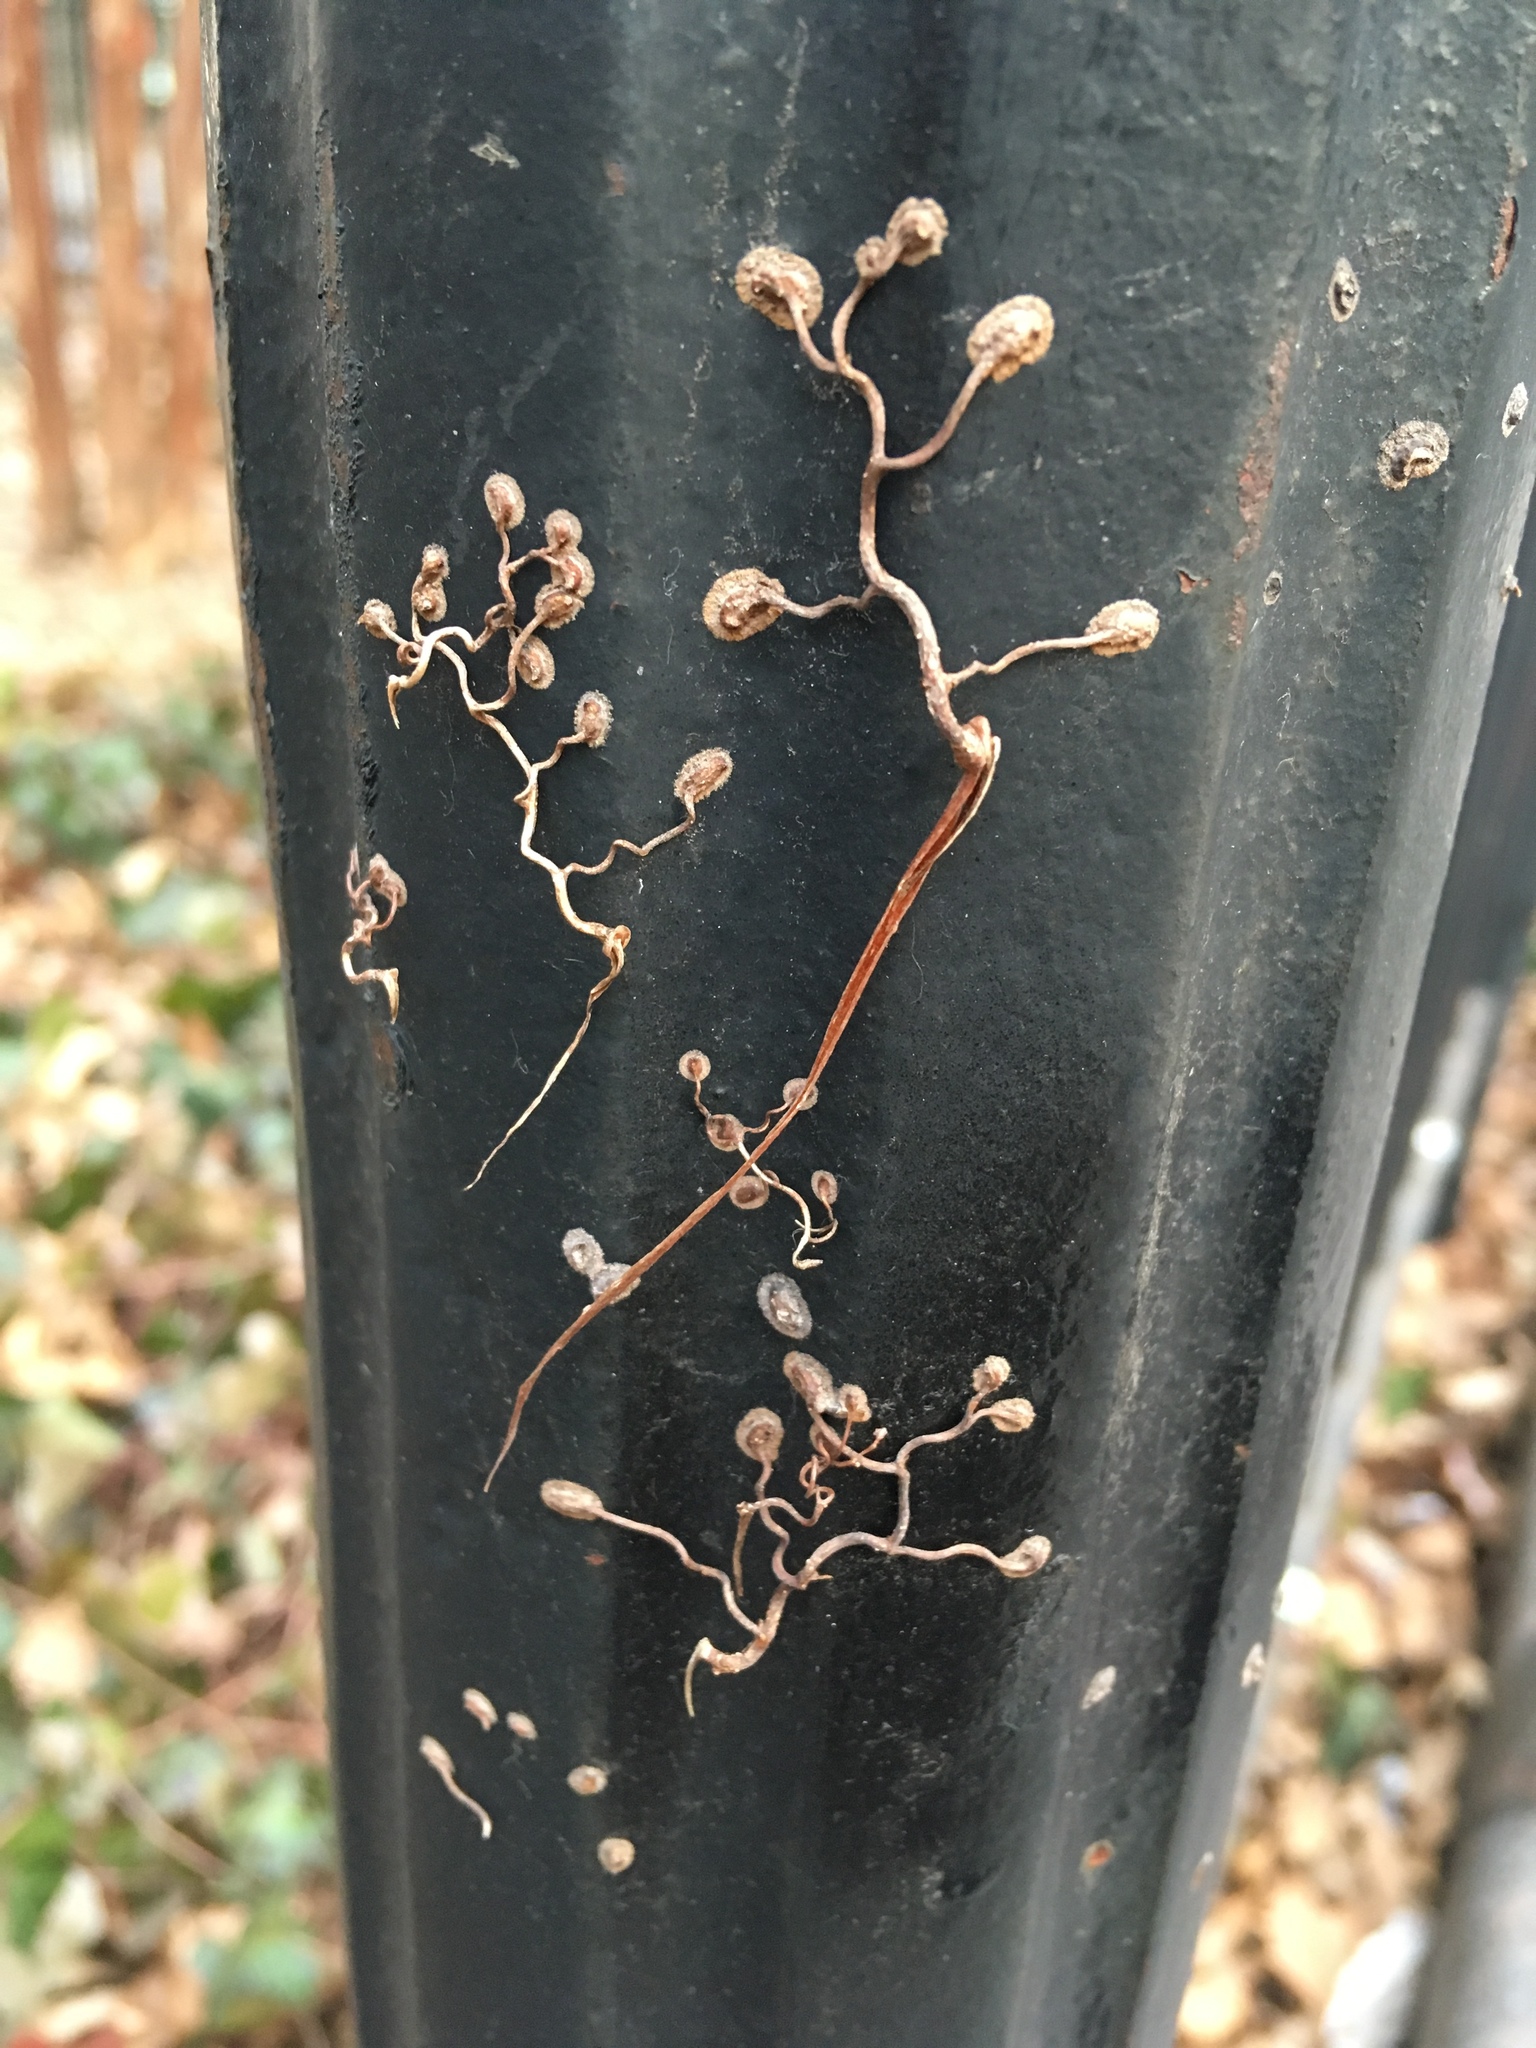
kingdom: Plantae
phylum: Tracheophyta
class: Magnoliopsida
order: Vitales
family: Vitaceae
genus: Parthenocissus
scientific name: Parthenocissus quinquefolia
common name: Virginia-creeper
